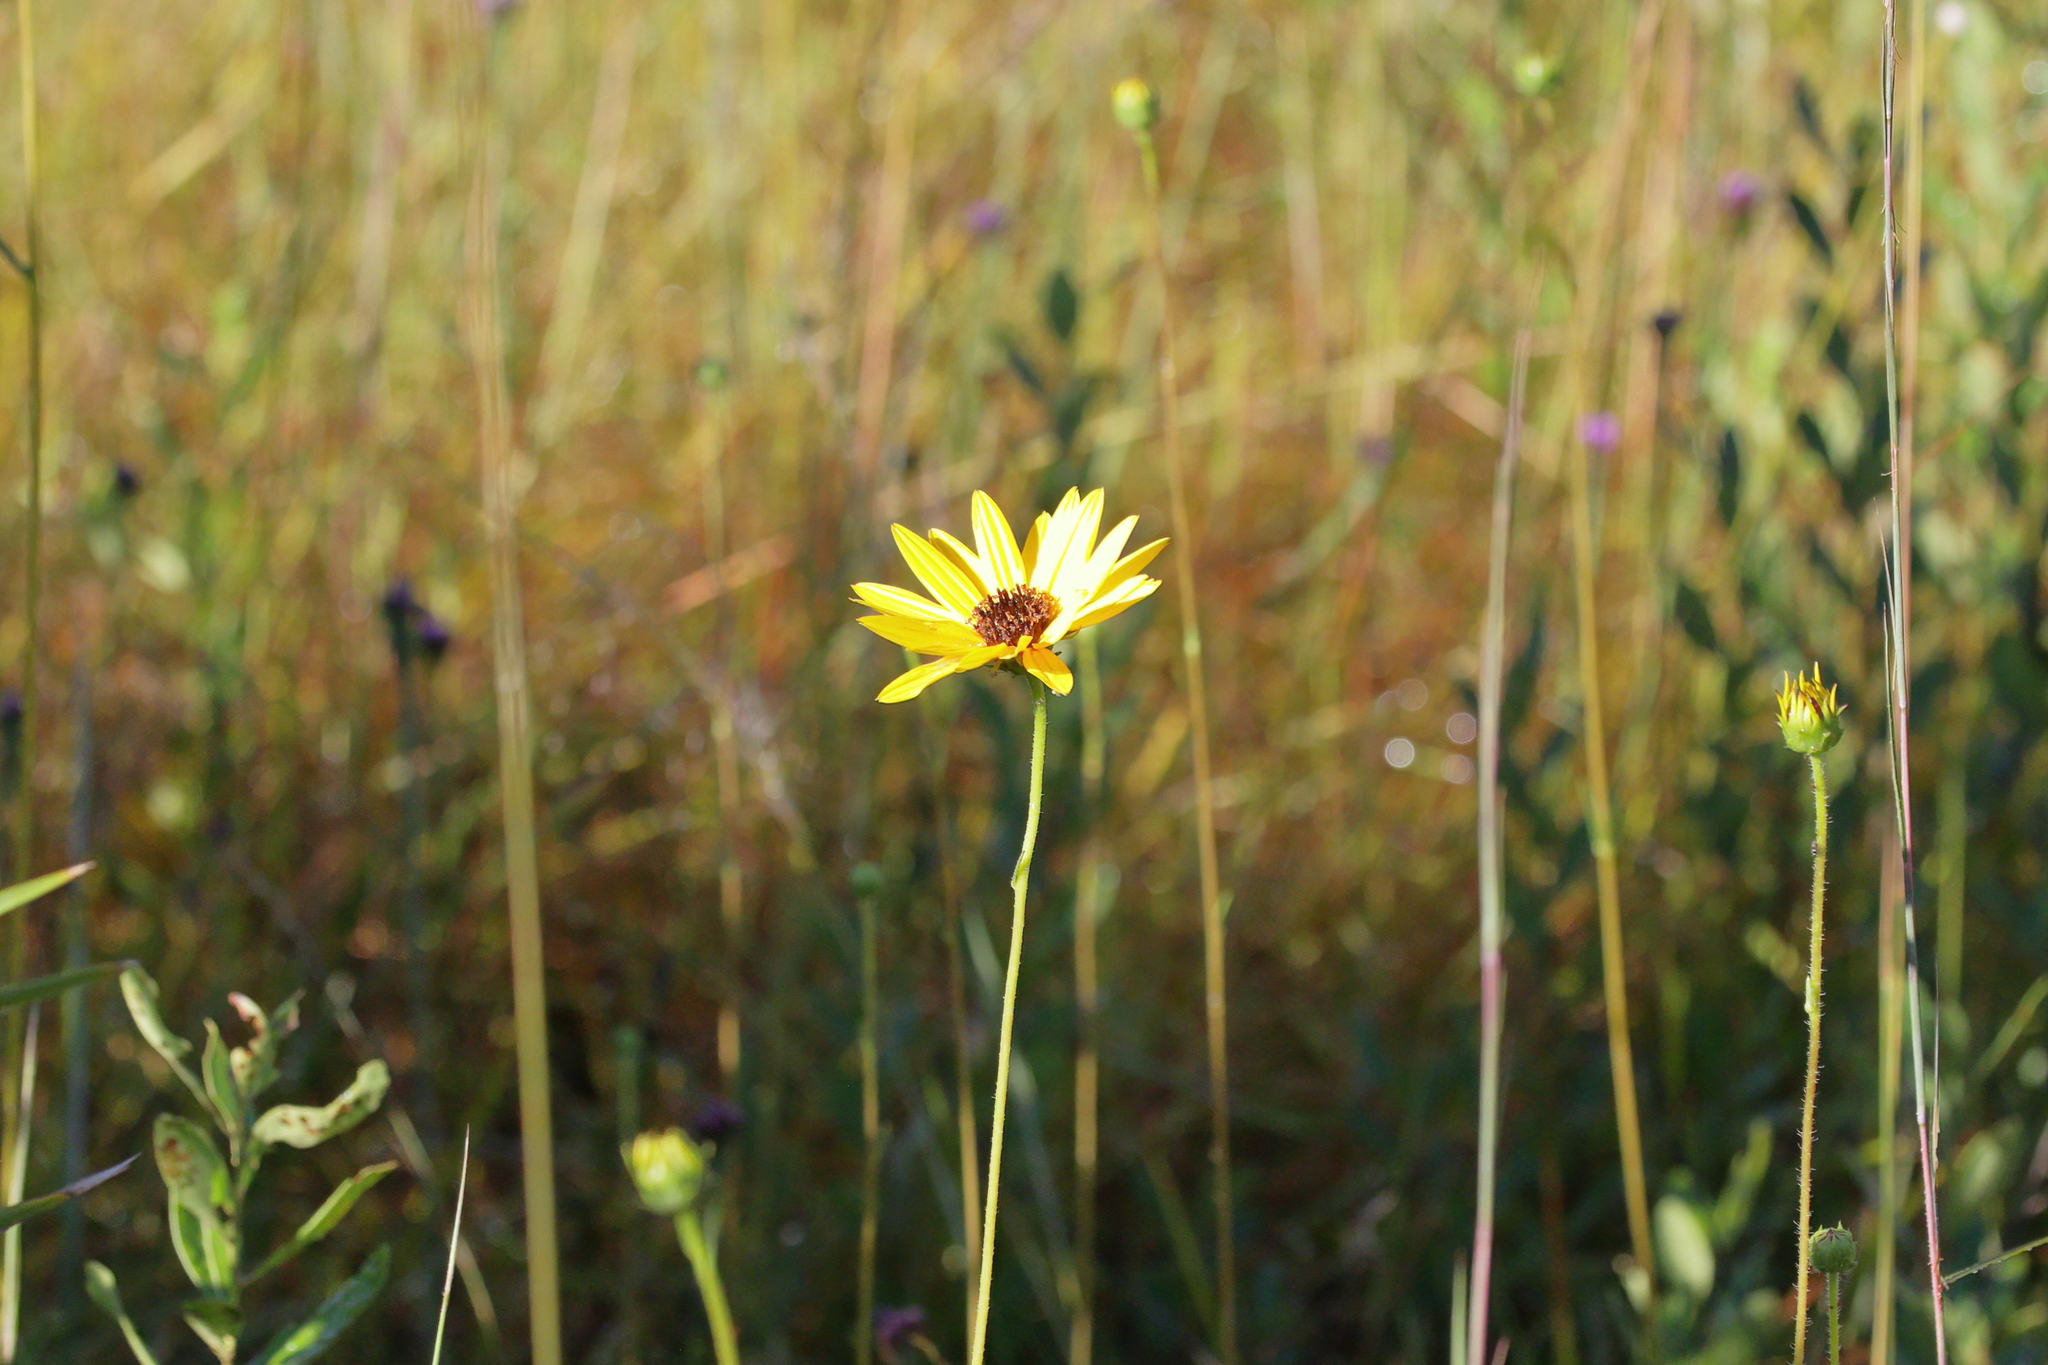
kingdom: Plantae
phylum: Tracheophyta
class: Magnoliopsida
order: Asterales
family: Asteraceae
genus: Helianthus
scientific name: Helianthus heterophyllus
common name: Wetland sunflower
